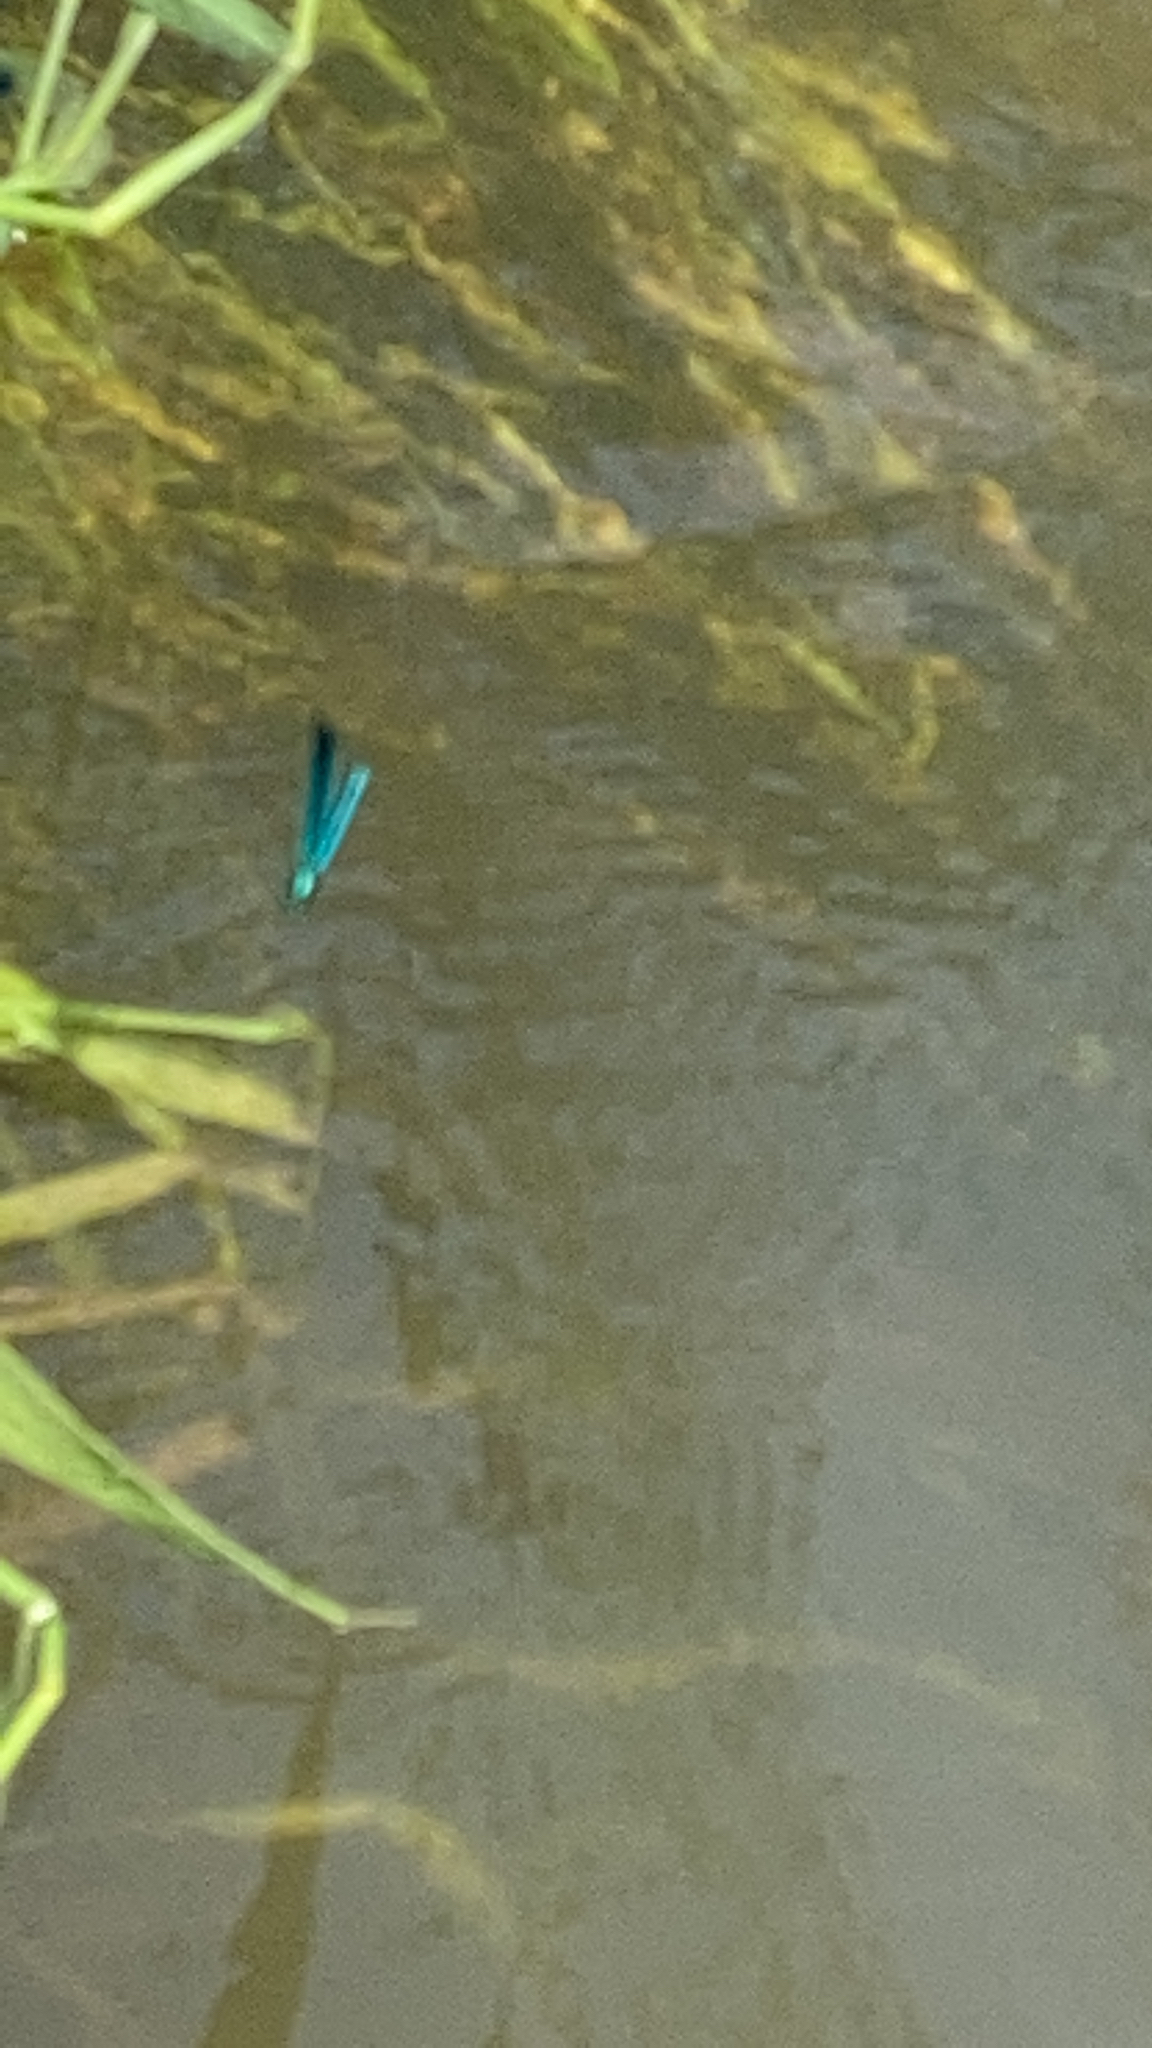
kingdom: Animalia
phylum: Arthropoda
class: Insecta
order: Odonata
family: Calopterygidae
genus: Calopteryx
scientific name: Calopteryx virgo
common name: Beautiful demoiselle
